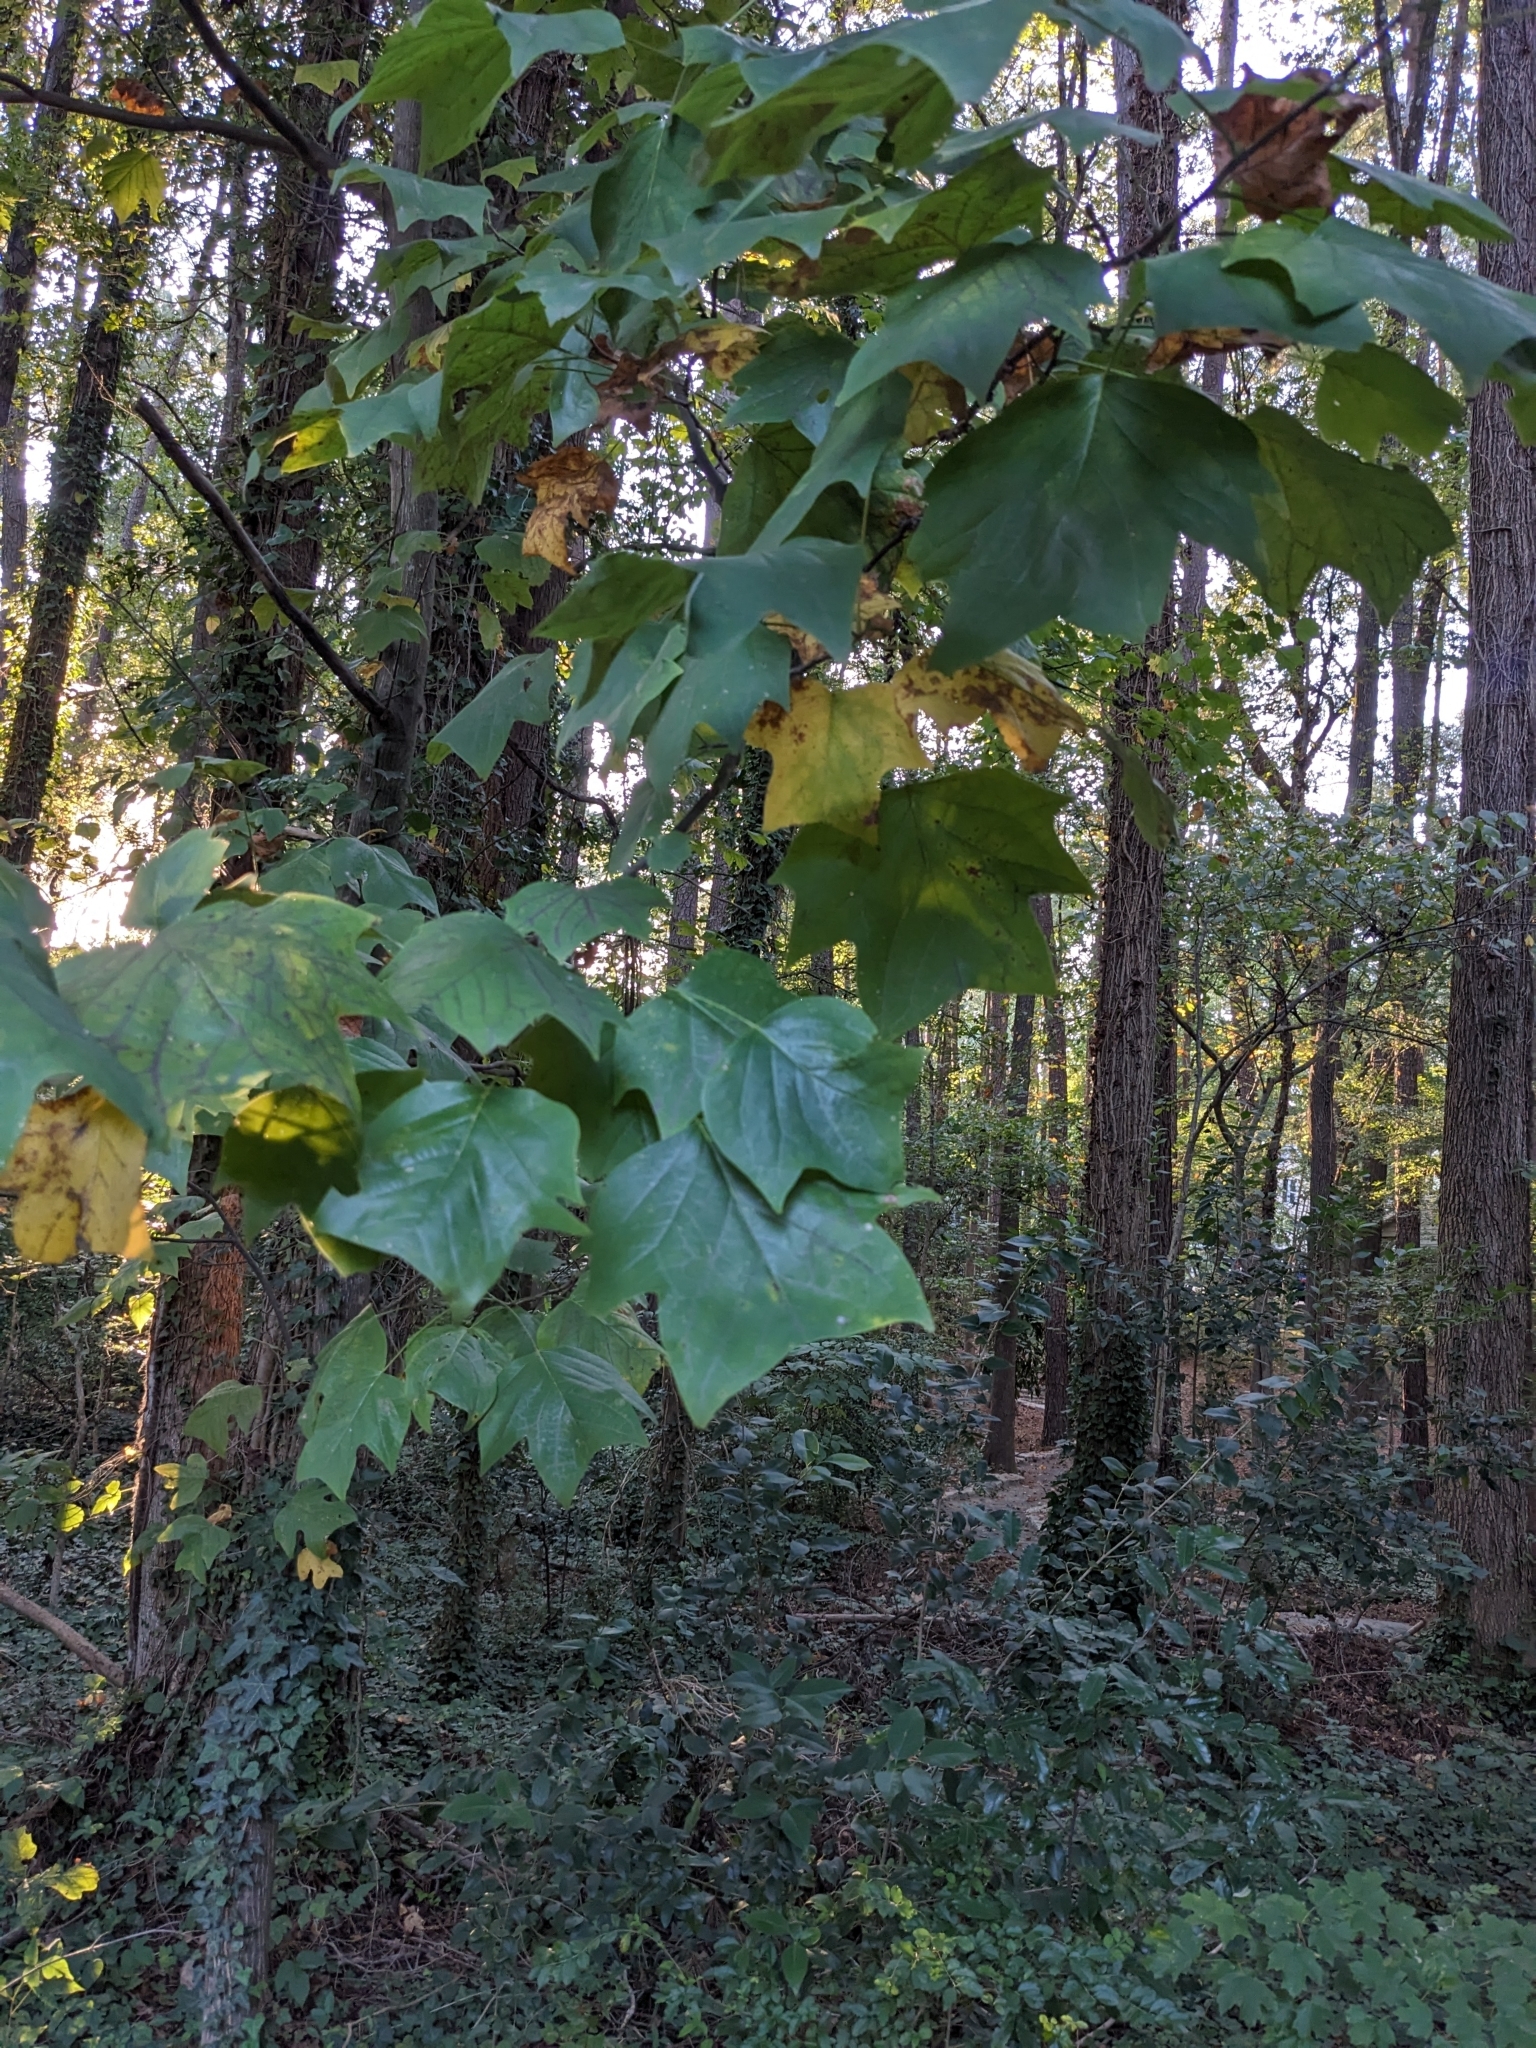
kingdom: Plantae
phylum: Tracheophyta
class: Magnoliopsida
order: Magnoliales
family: Magnoliaceae
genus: Liriodendron
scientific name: Liriodendron tulipifera
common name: Tulip tree
